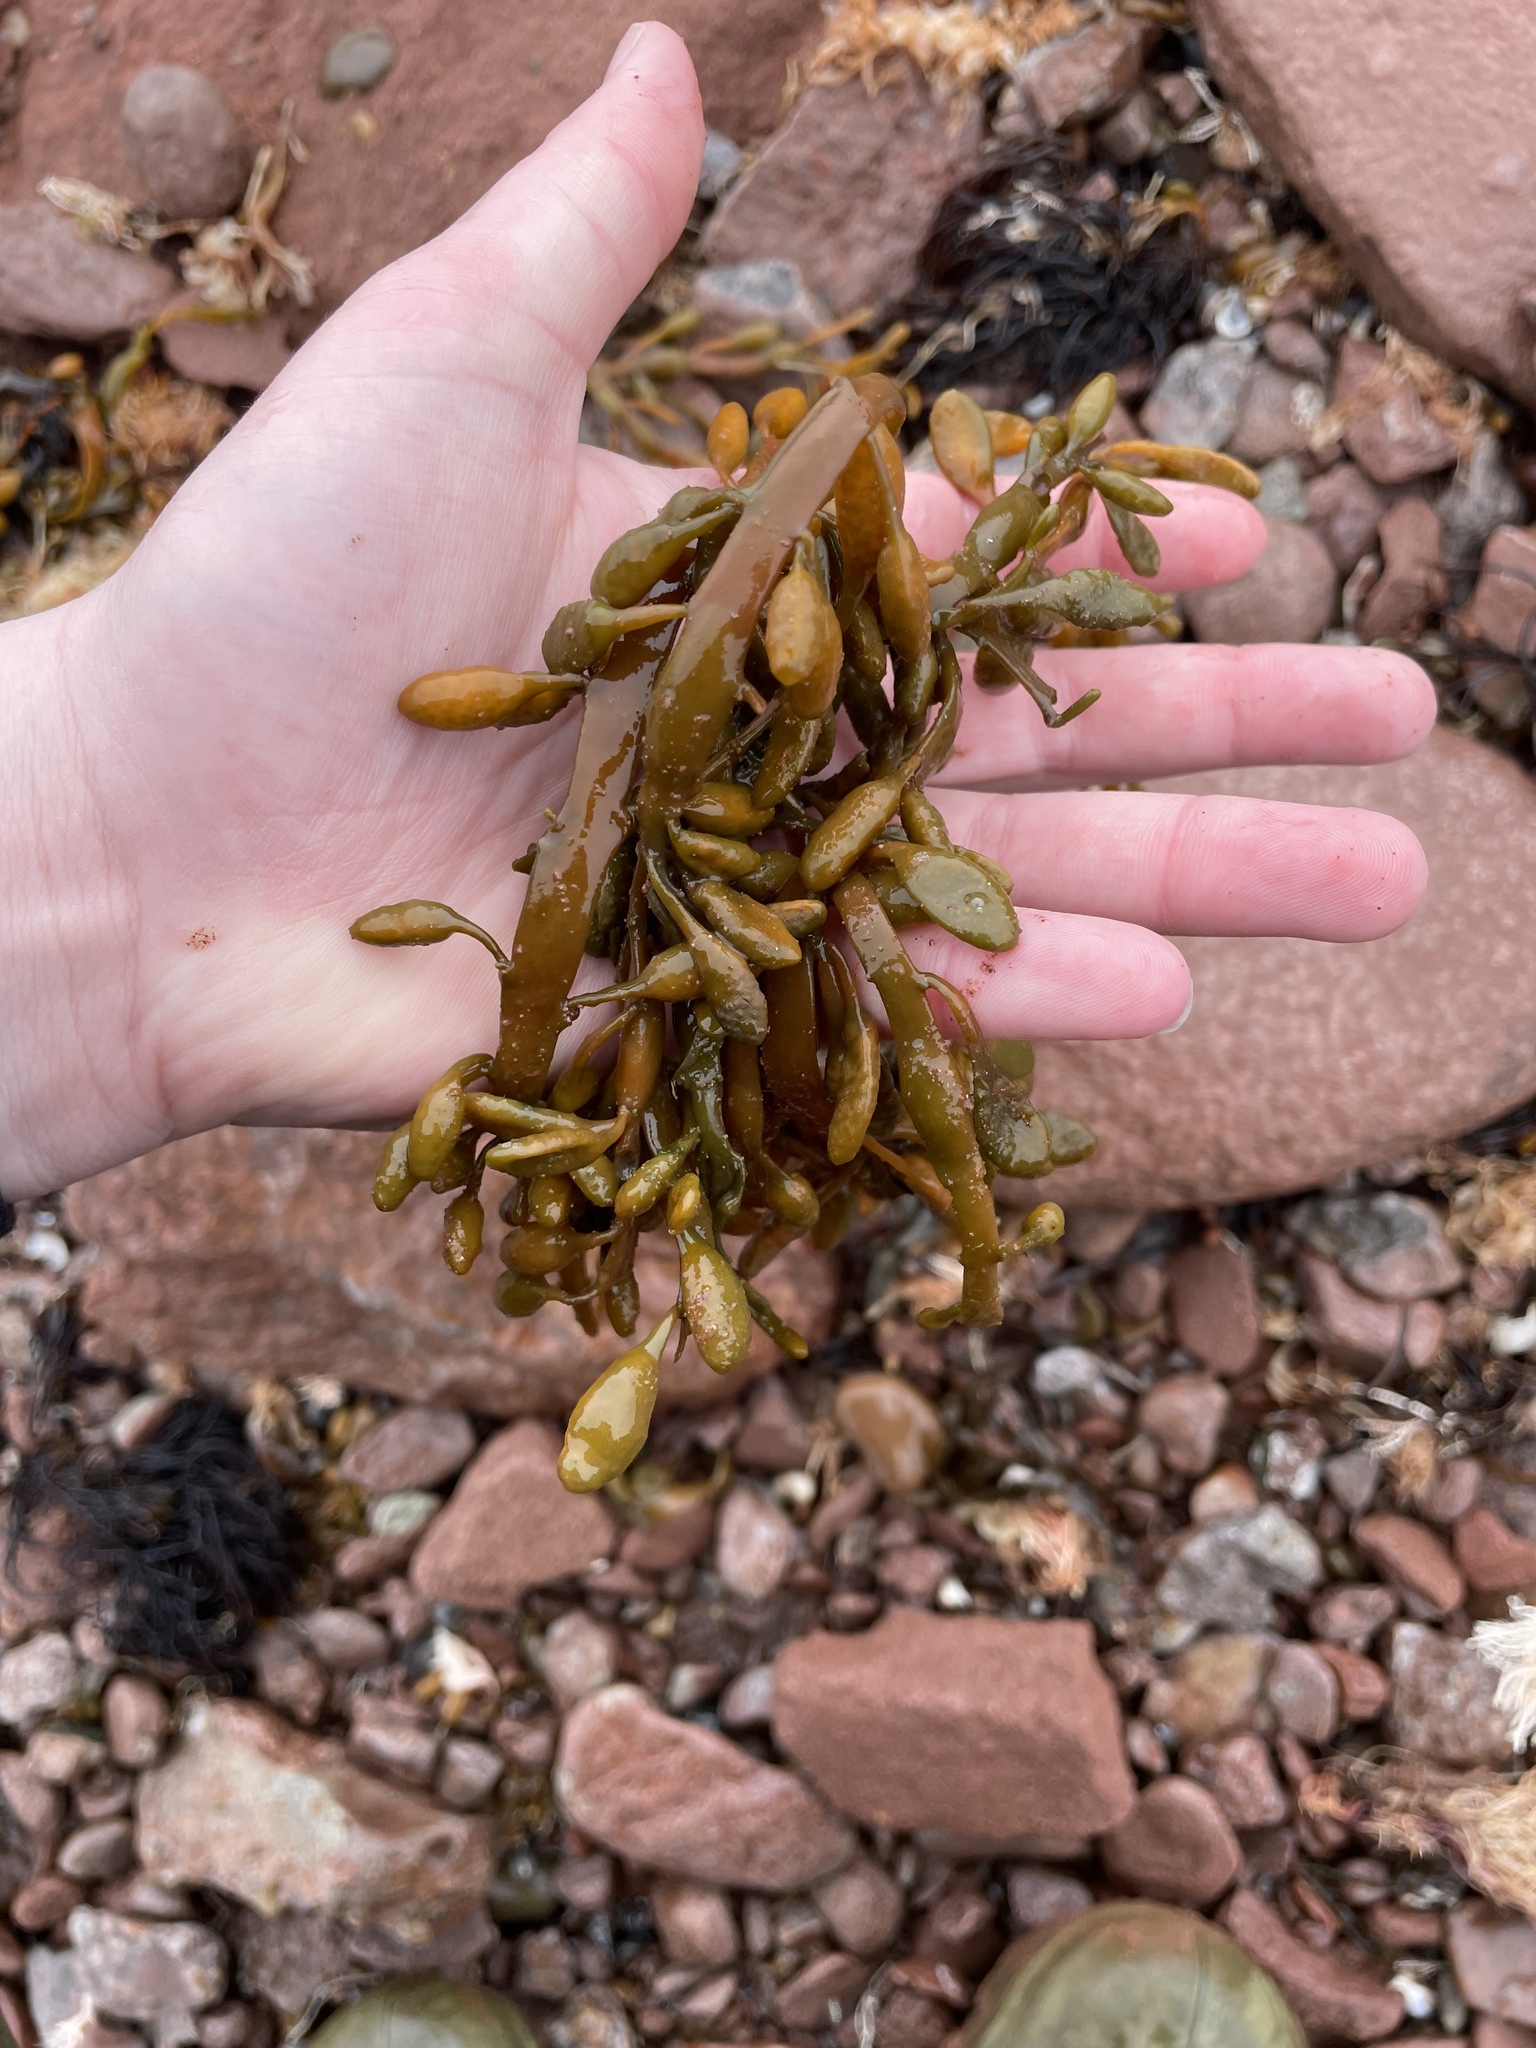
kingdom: Chromista
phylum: Ochrophyta
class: Phaeophyceae
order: Fucales
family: Fucaceae
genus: Ascophyllum
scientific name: Ascophyllum nodosum
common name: Knotted wrack
